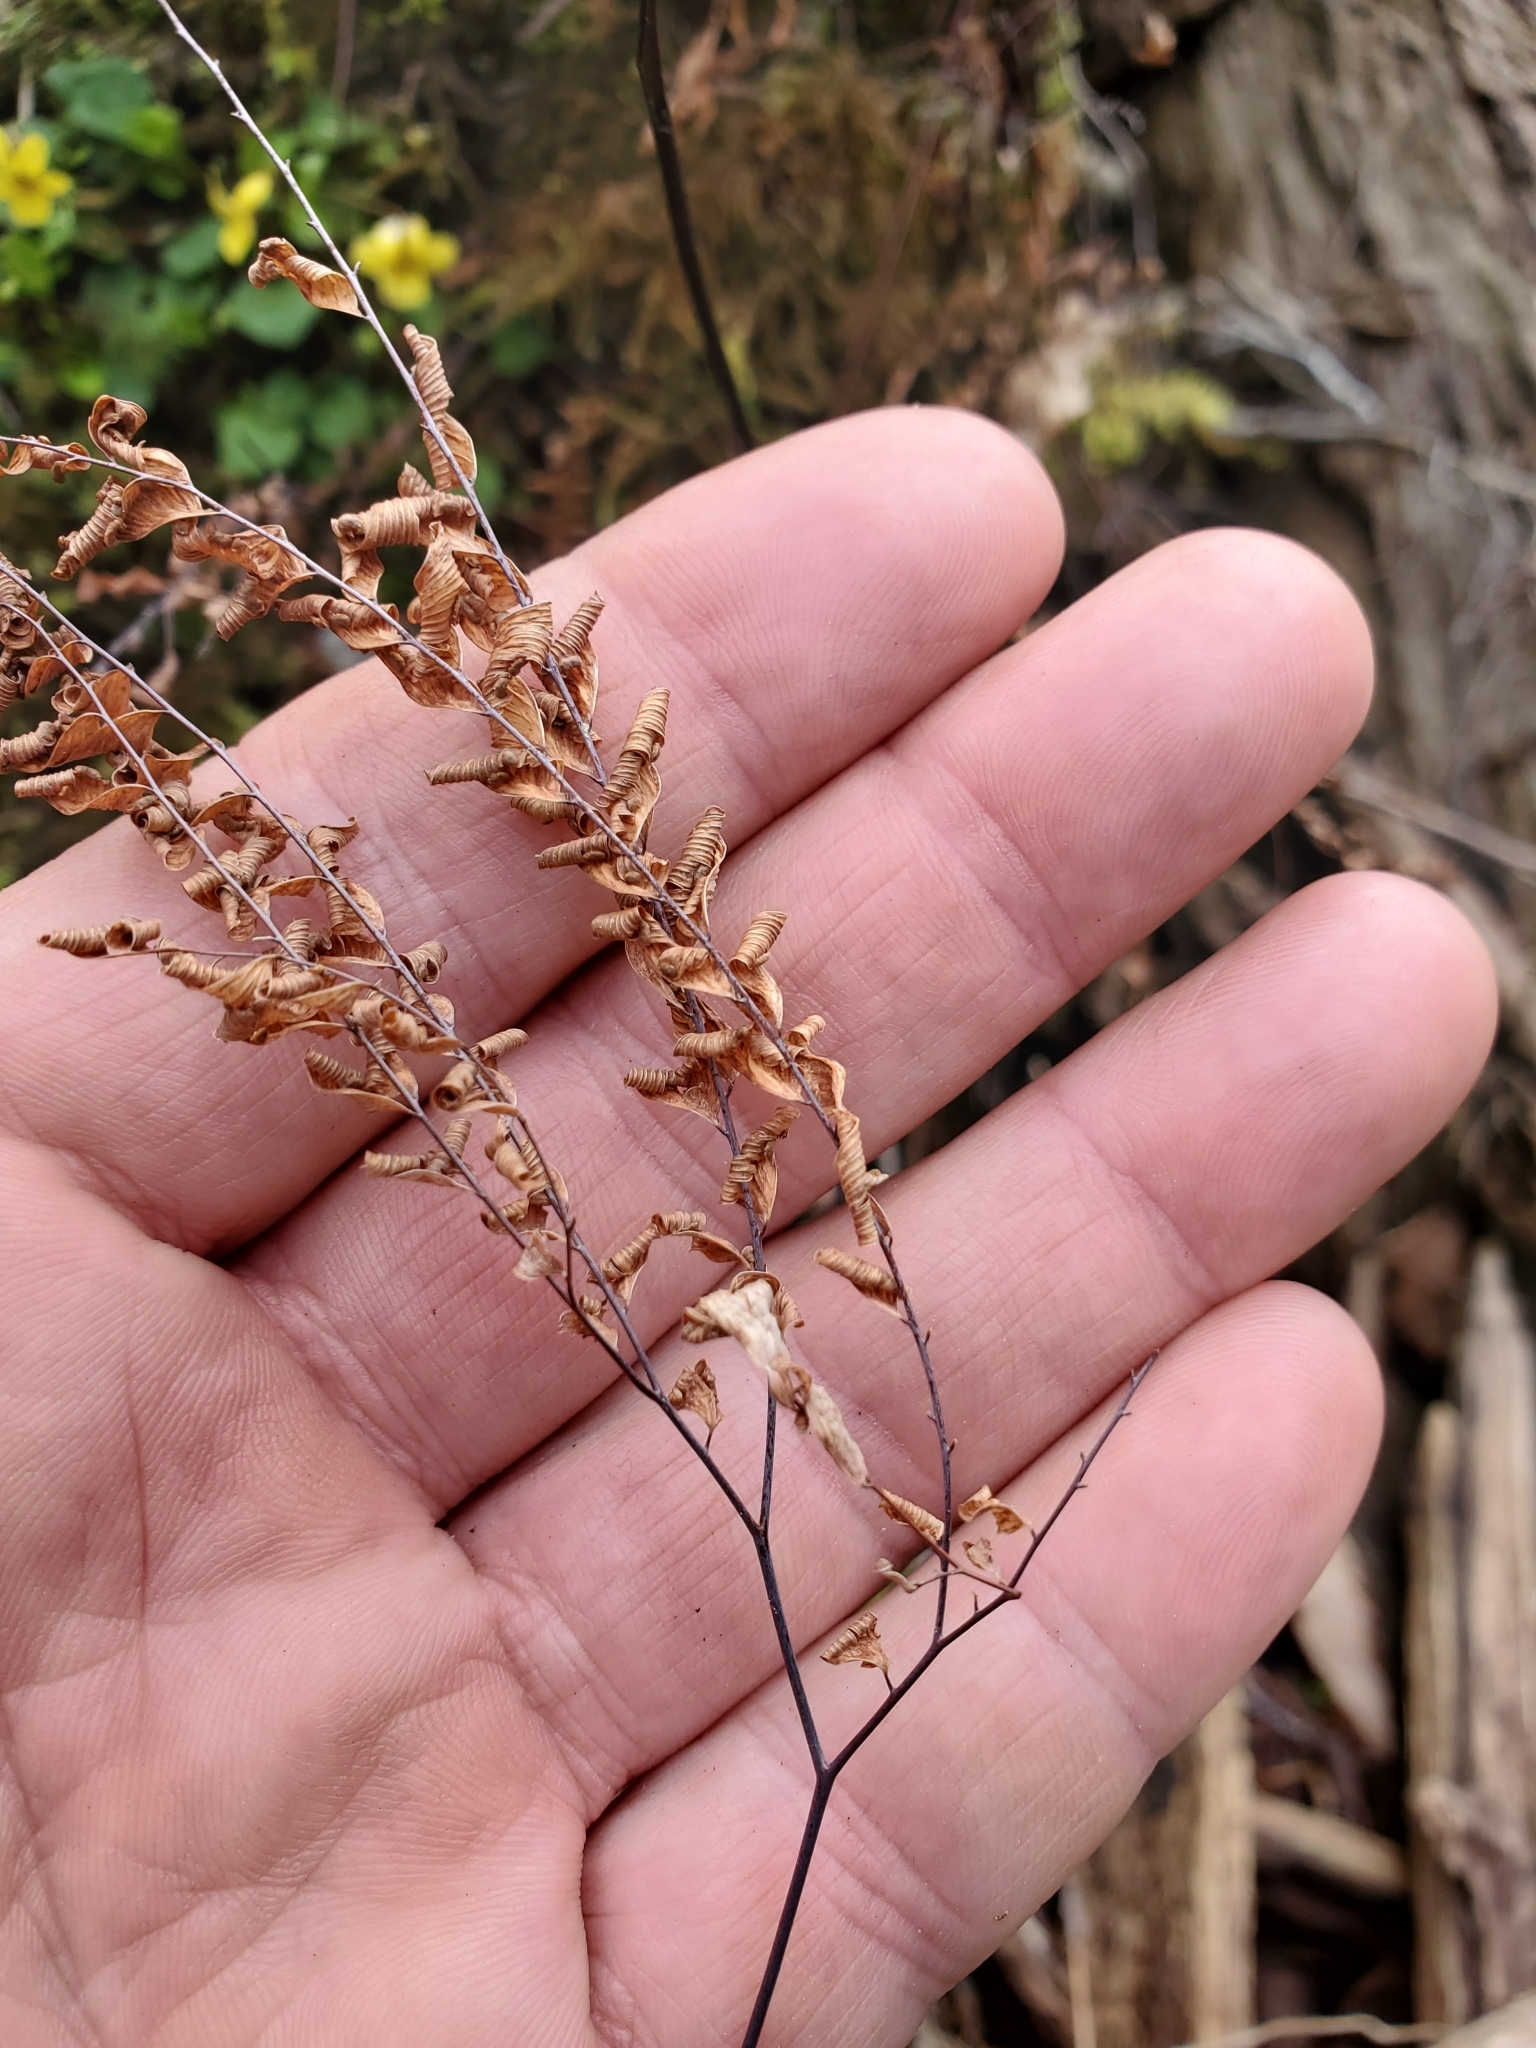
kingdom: Plantae
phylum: Tracheophyta
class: Polypodiopsida
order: Polypodiales
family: Pteridaceae
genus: Adiantum
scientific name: Adiantum aleuticum
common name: Aleutian maidenhair fern
